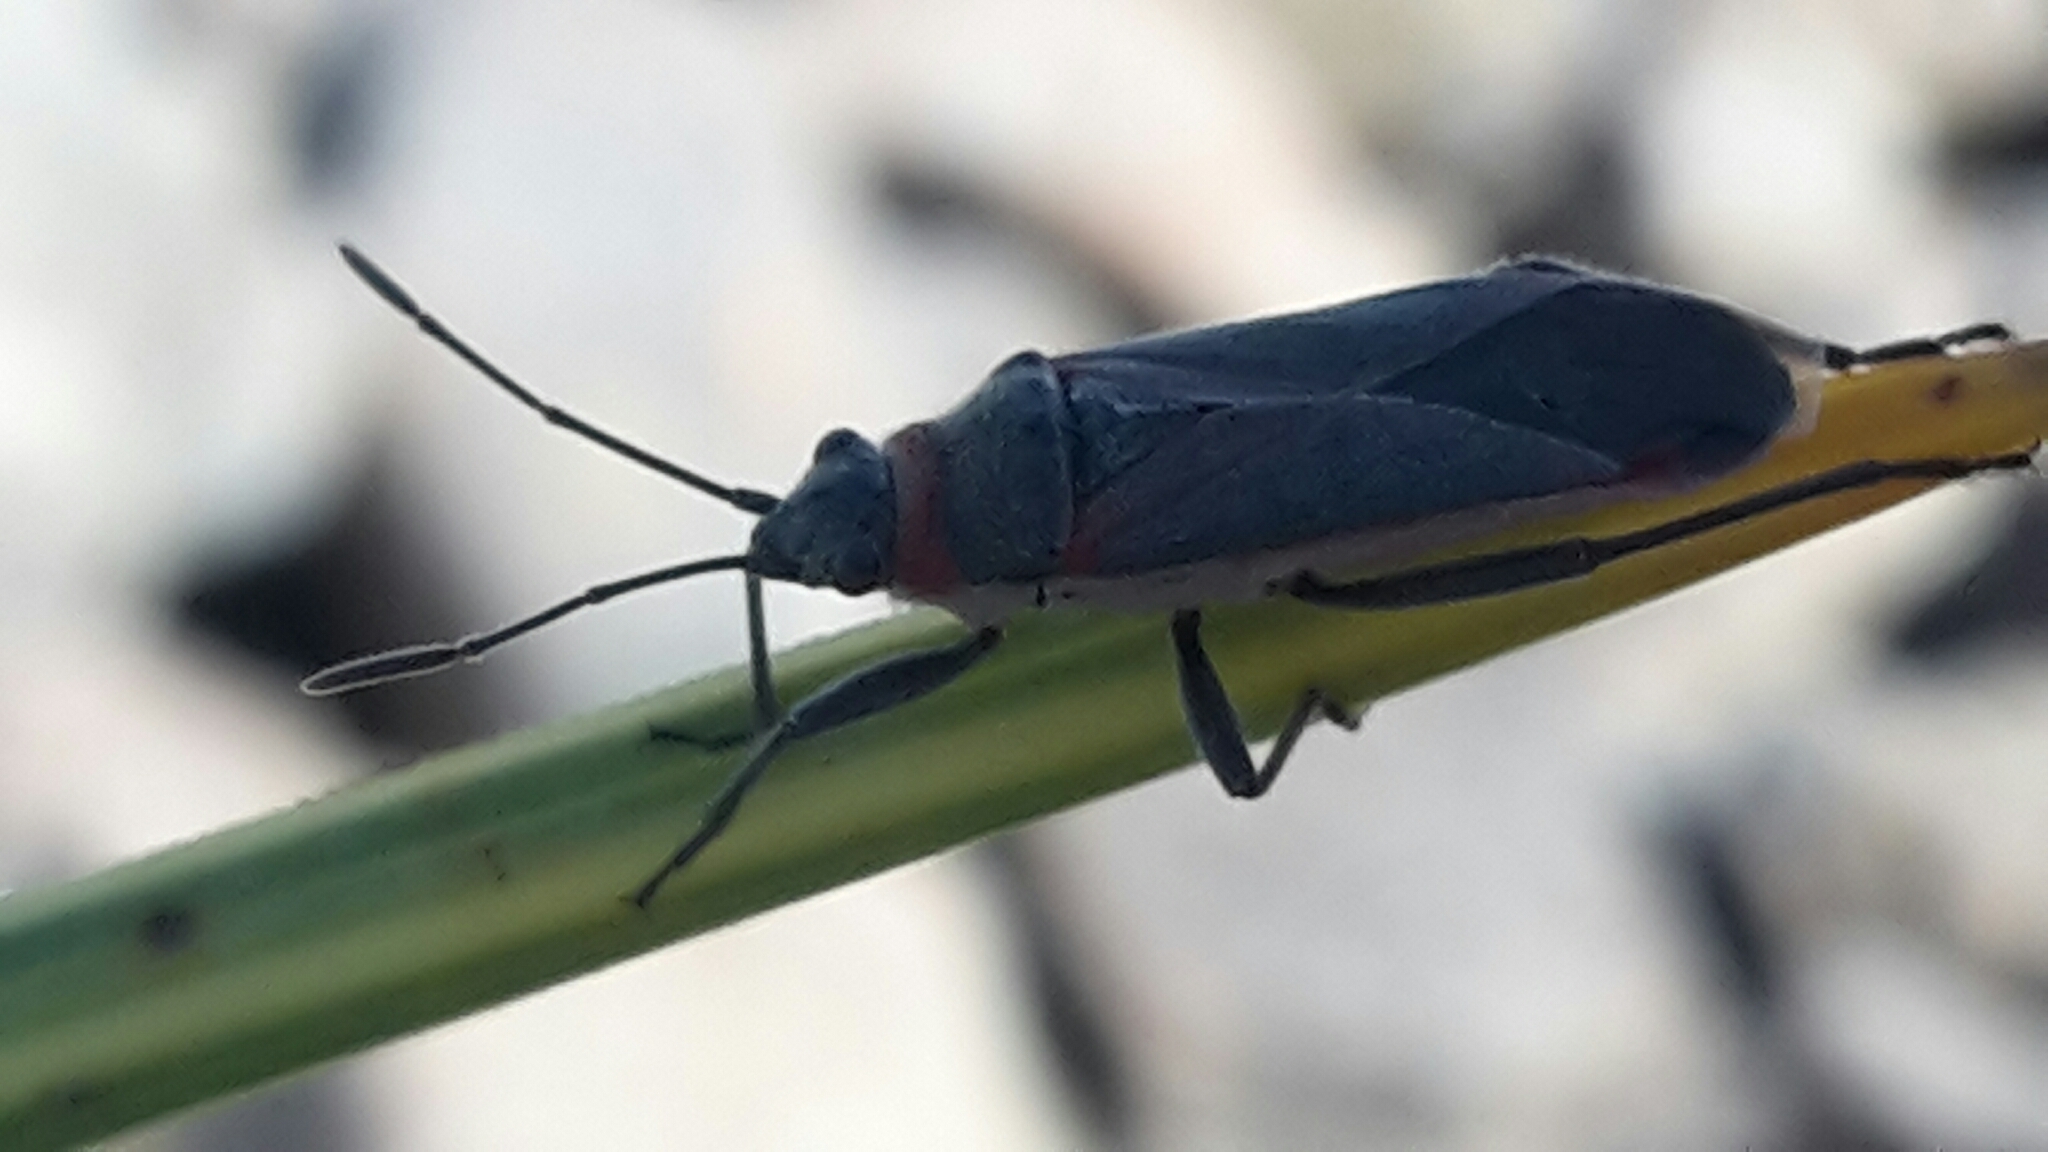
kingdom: Animalia
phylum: Arthropoda
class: Insecta
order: Hemiptera
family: Lygaeidae
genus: Arocatus
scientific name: Arocatus rusticus
